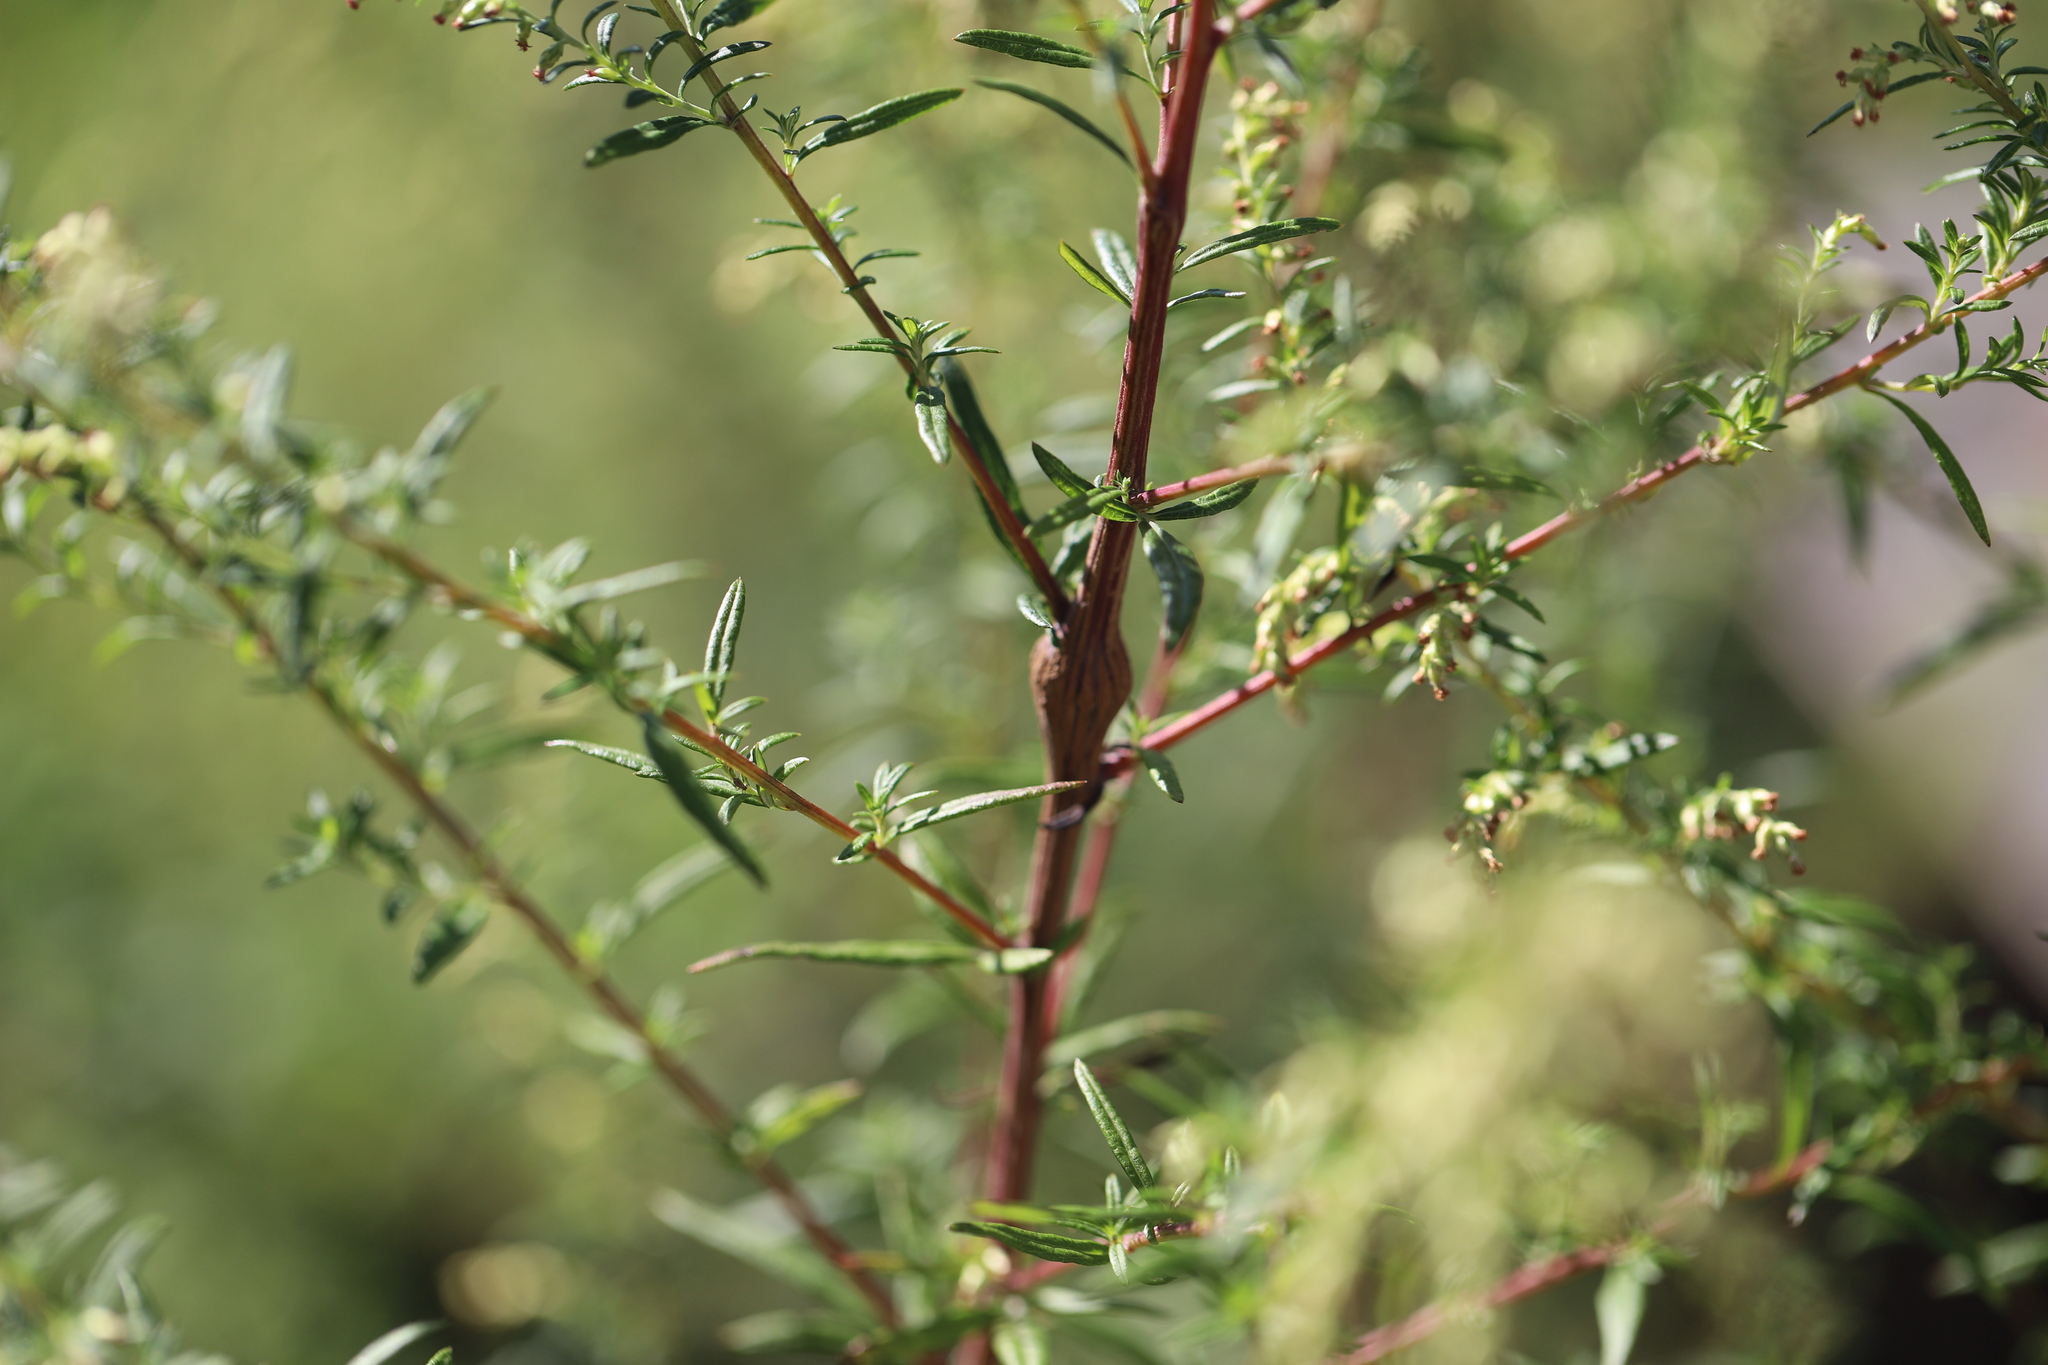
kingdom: Plantae
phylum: Tracheophyta
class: Magnoliopsida
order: Asterales
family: Asteraceae
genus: Artemisia
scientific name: Artemisia vulgaris
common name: Mugwort
